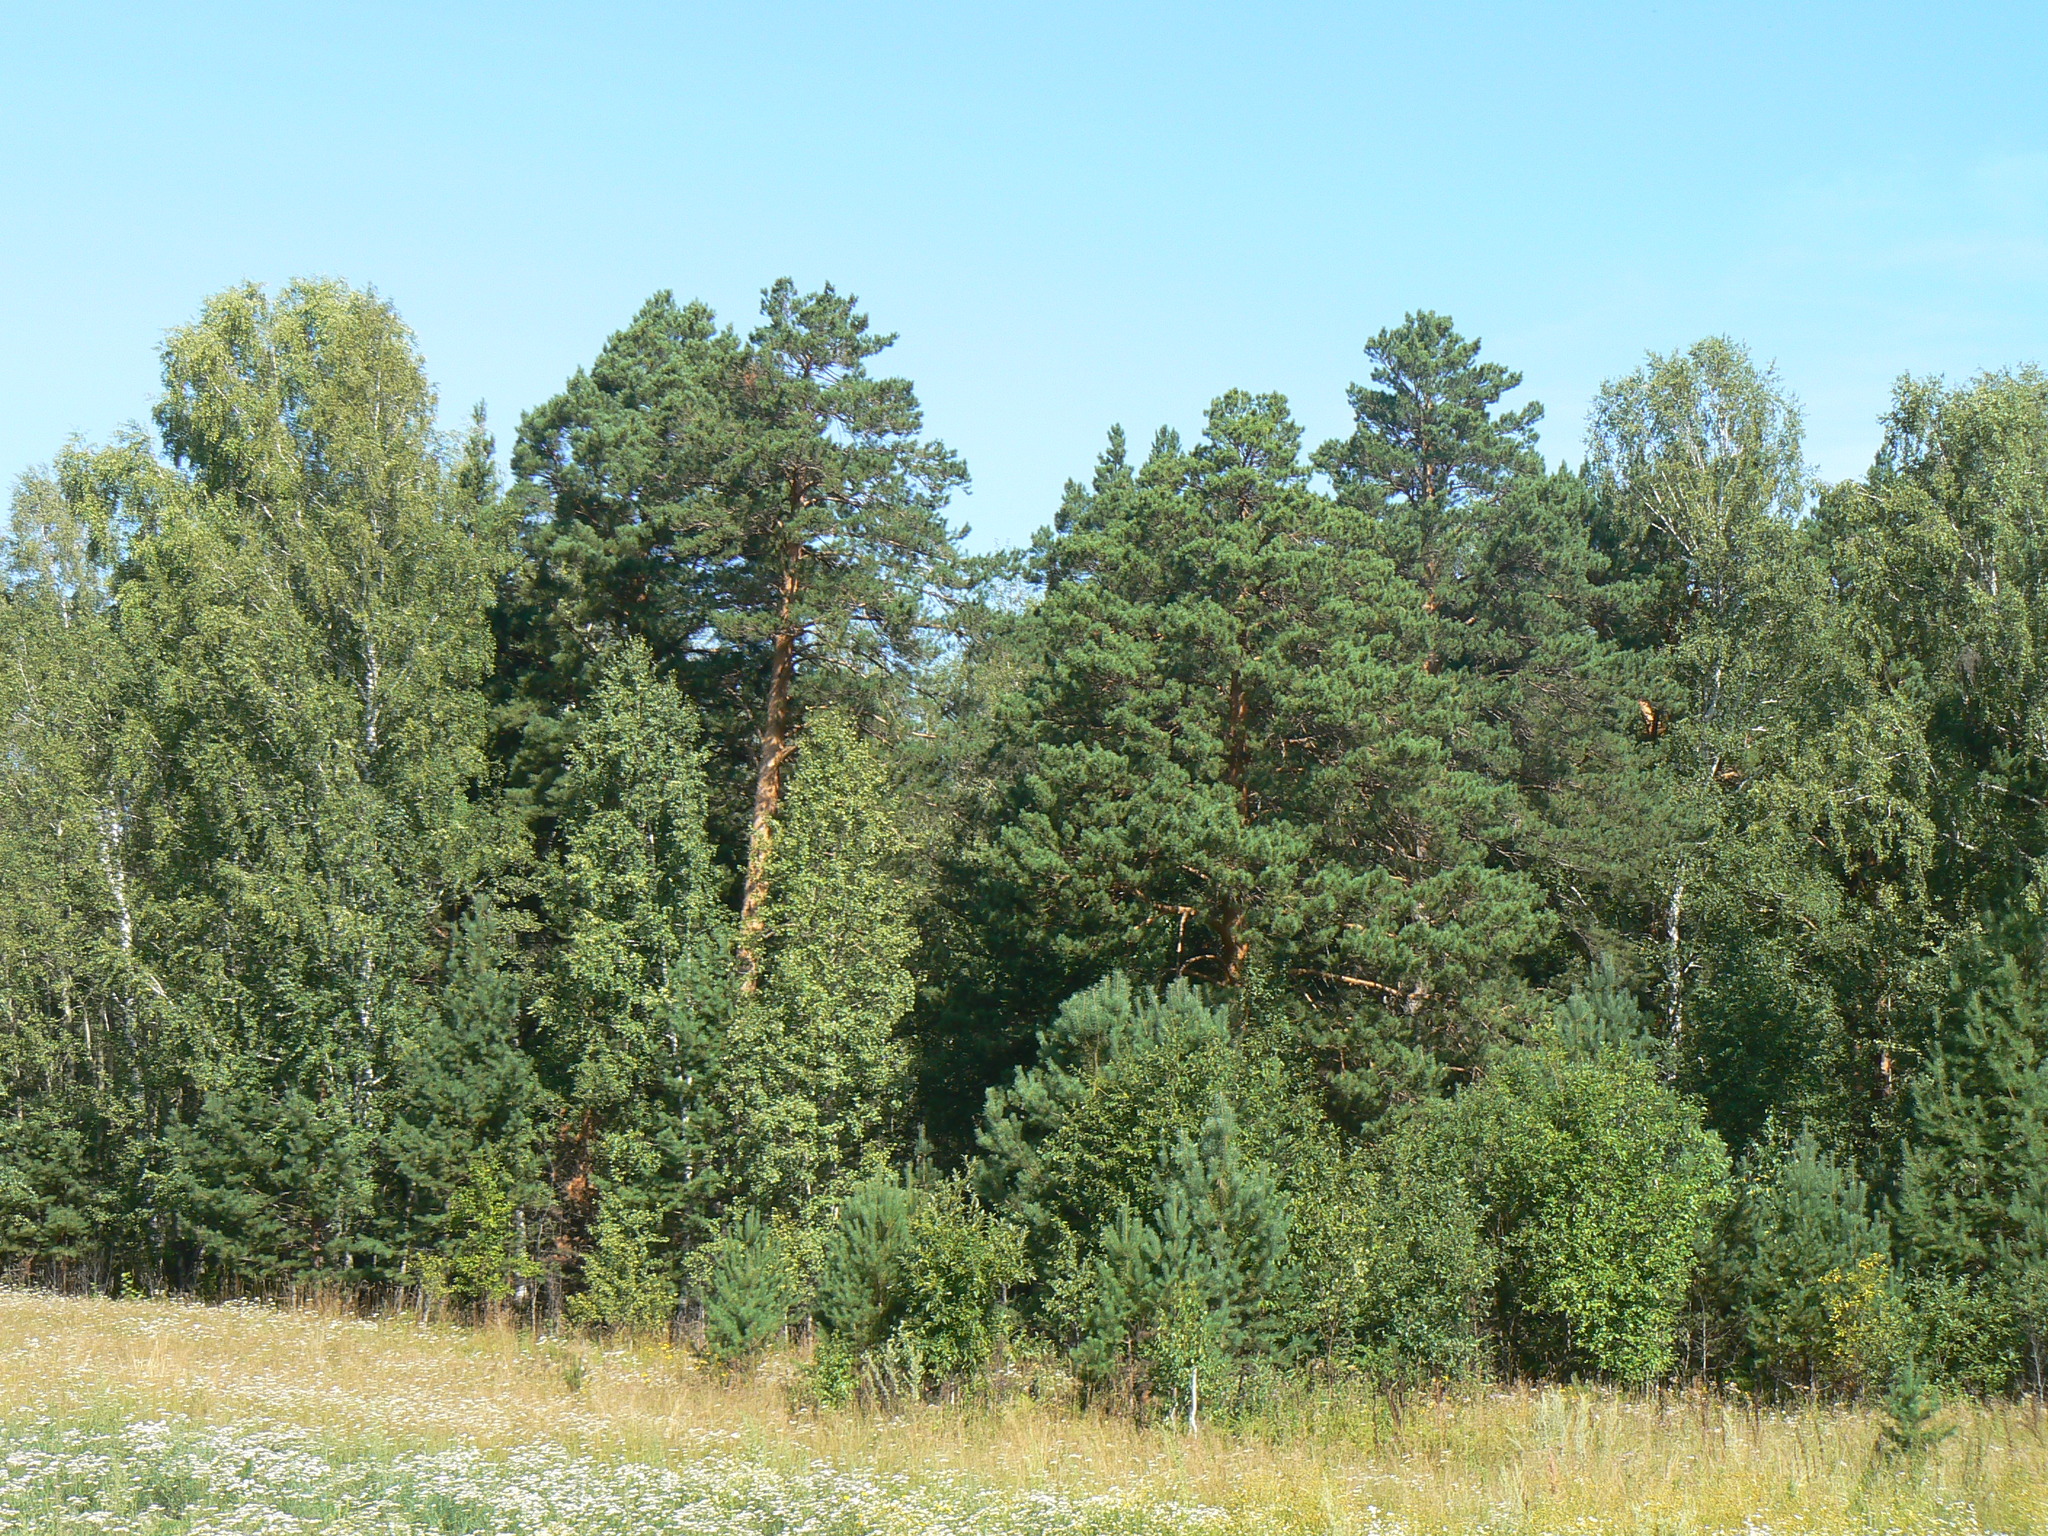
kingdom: Plantae
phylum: Tracheophyta
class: Pinopsida
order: Pinales
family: Pinaceae
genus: Pinus
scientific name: Pinus sylvestris
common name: Scots pine
